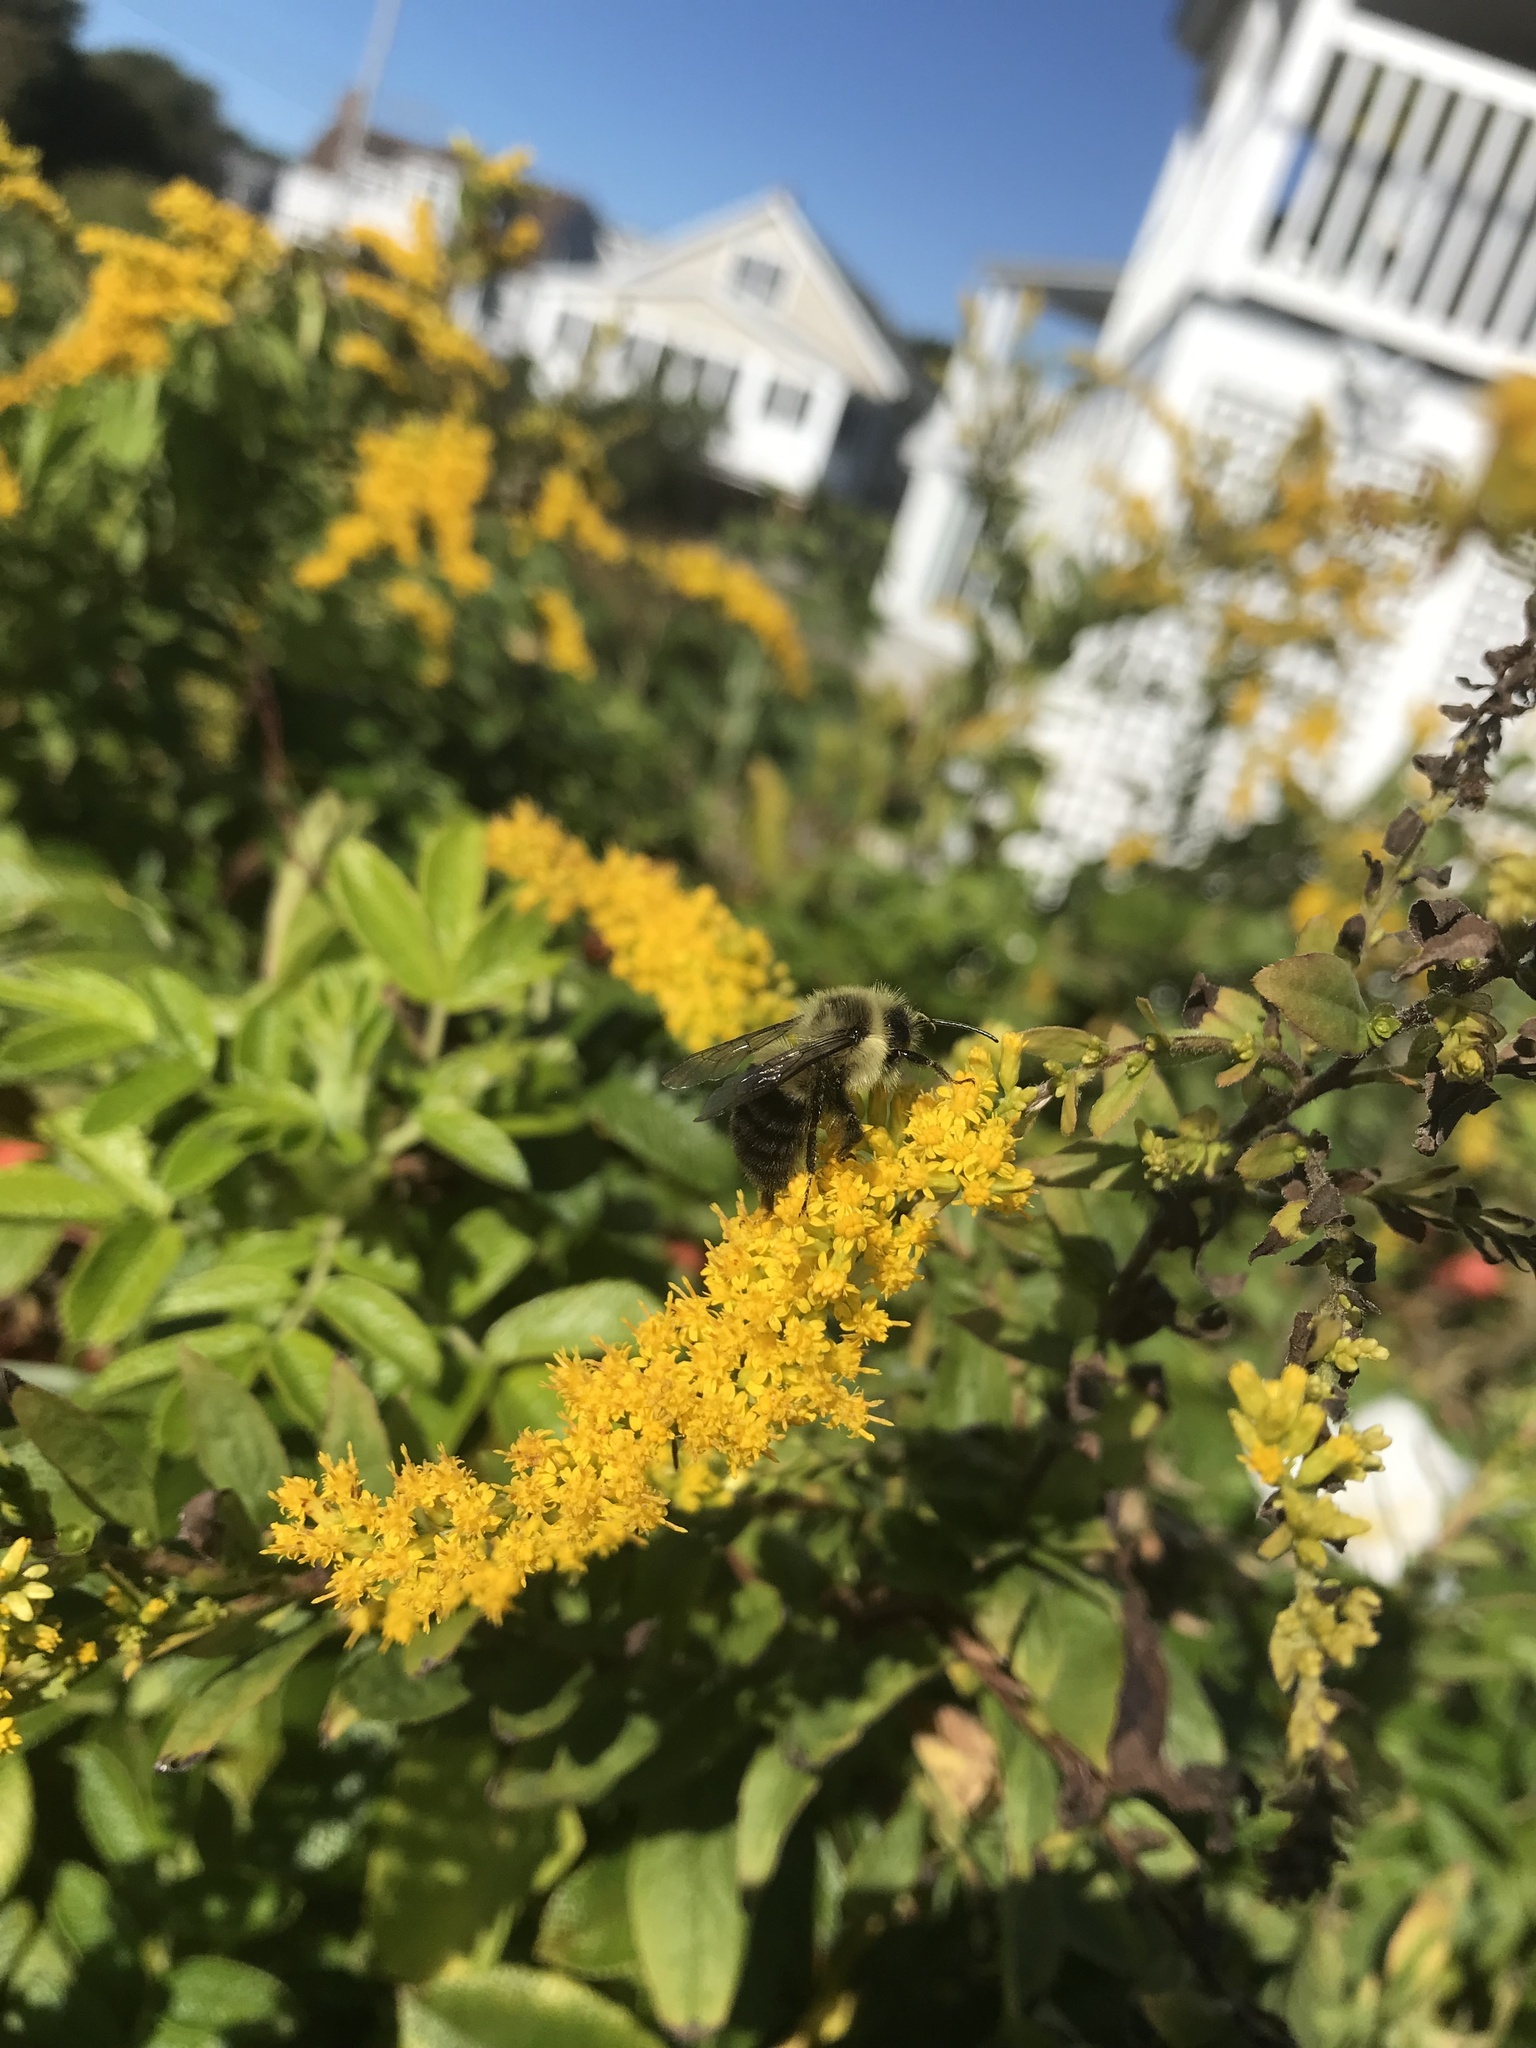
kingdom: Animalia
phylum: Arthropoda
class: Insecta
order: Hymenoptera
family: Apidae
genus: Bombus
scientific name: Bombus impatiens
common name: Common eastern bumble bee
